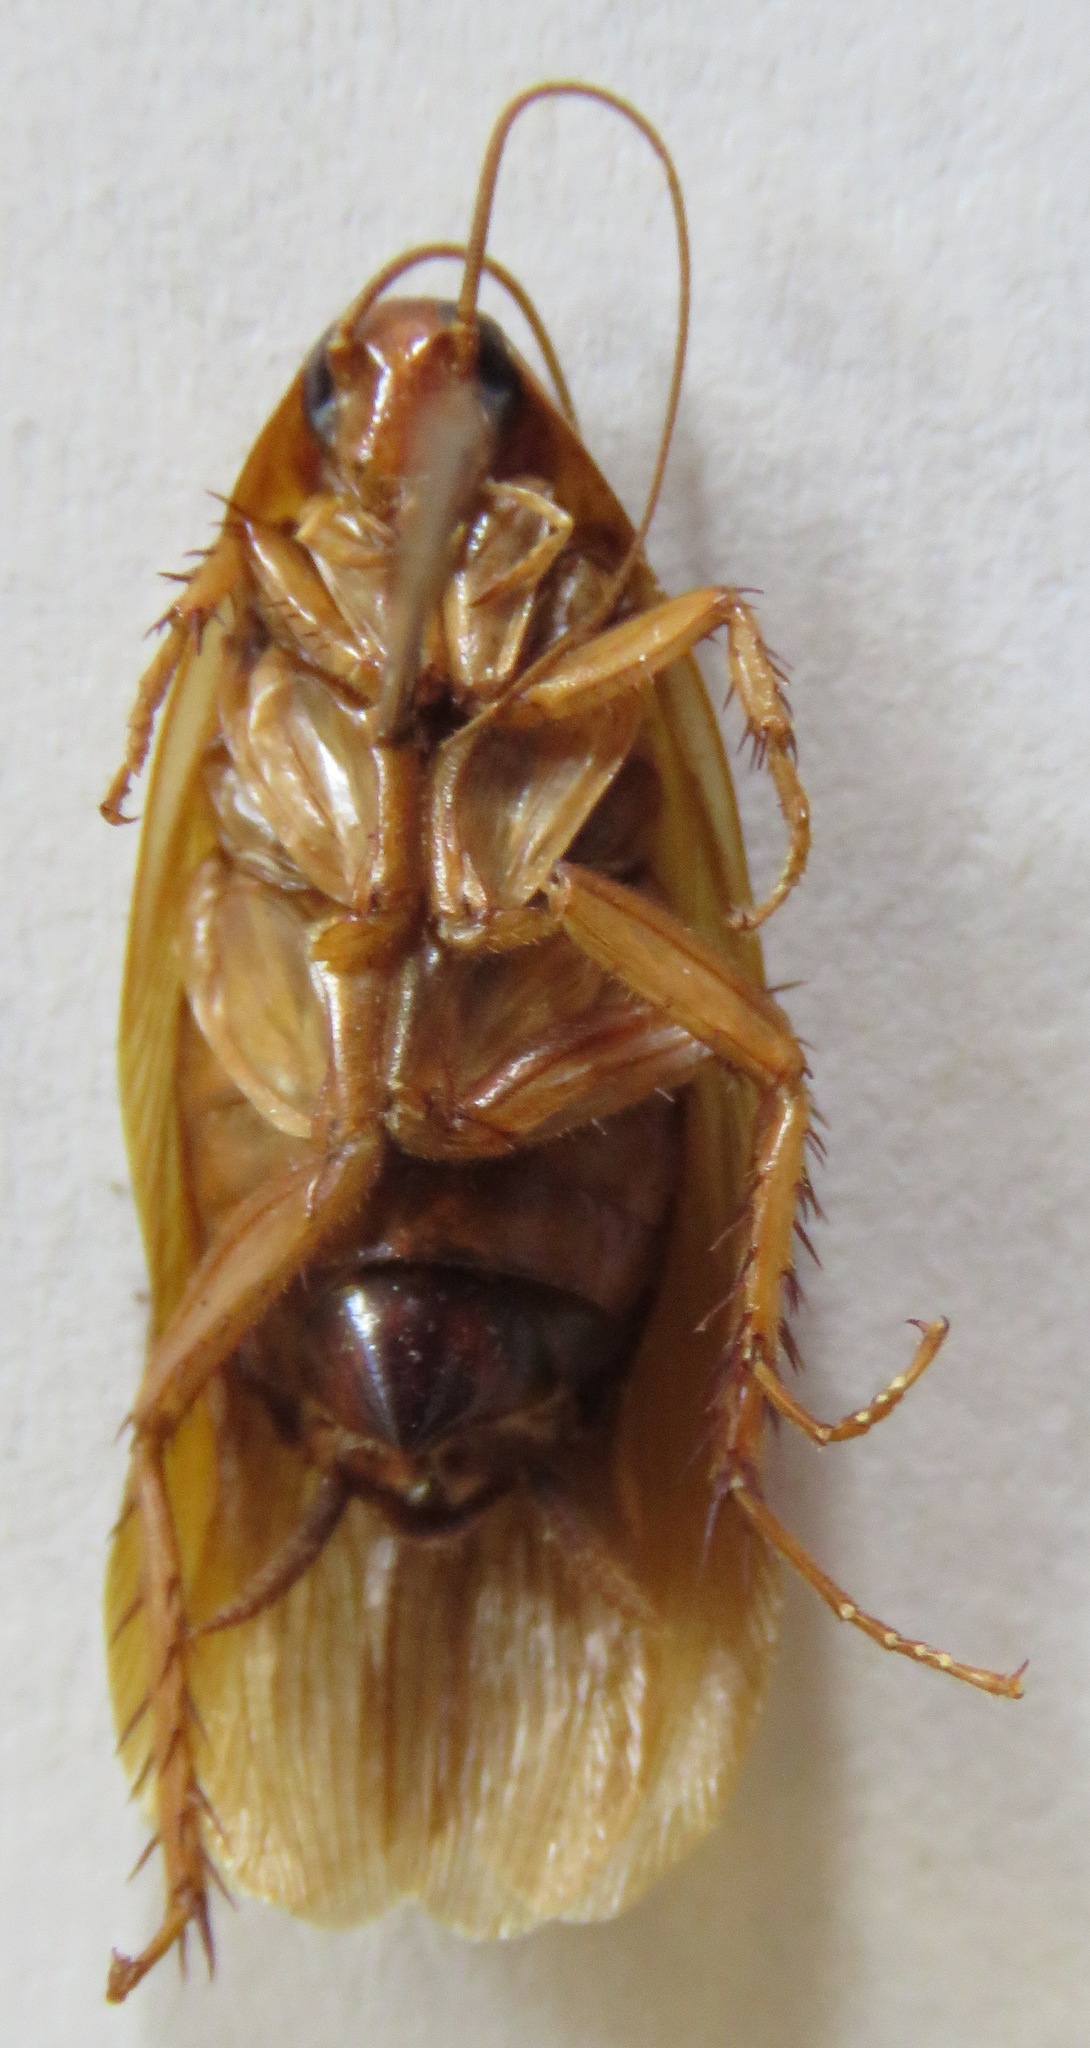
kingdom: Animalia
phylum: Arthropoda
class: Insecta
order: Blattodea
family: Ectobiidae
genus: Ischnoptera
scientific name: Ischnoptera rufa
